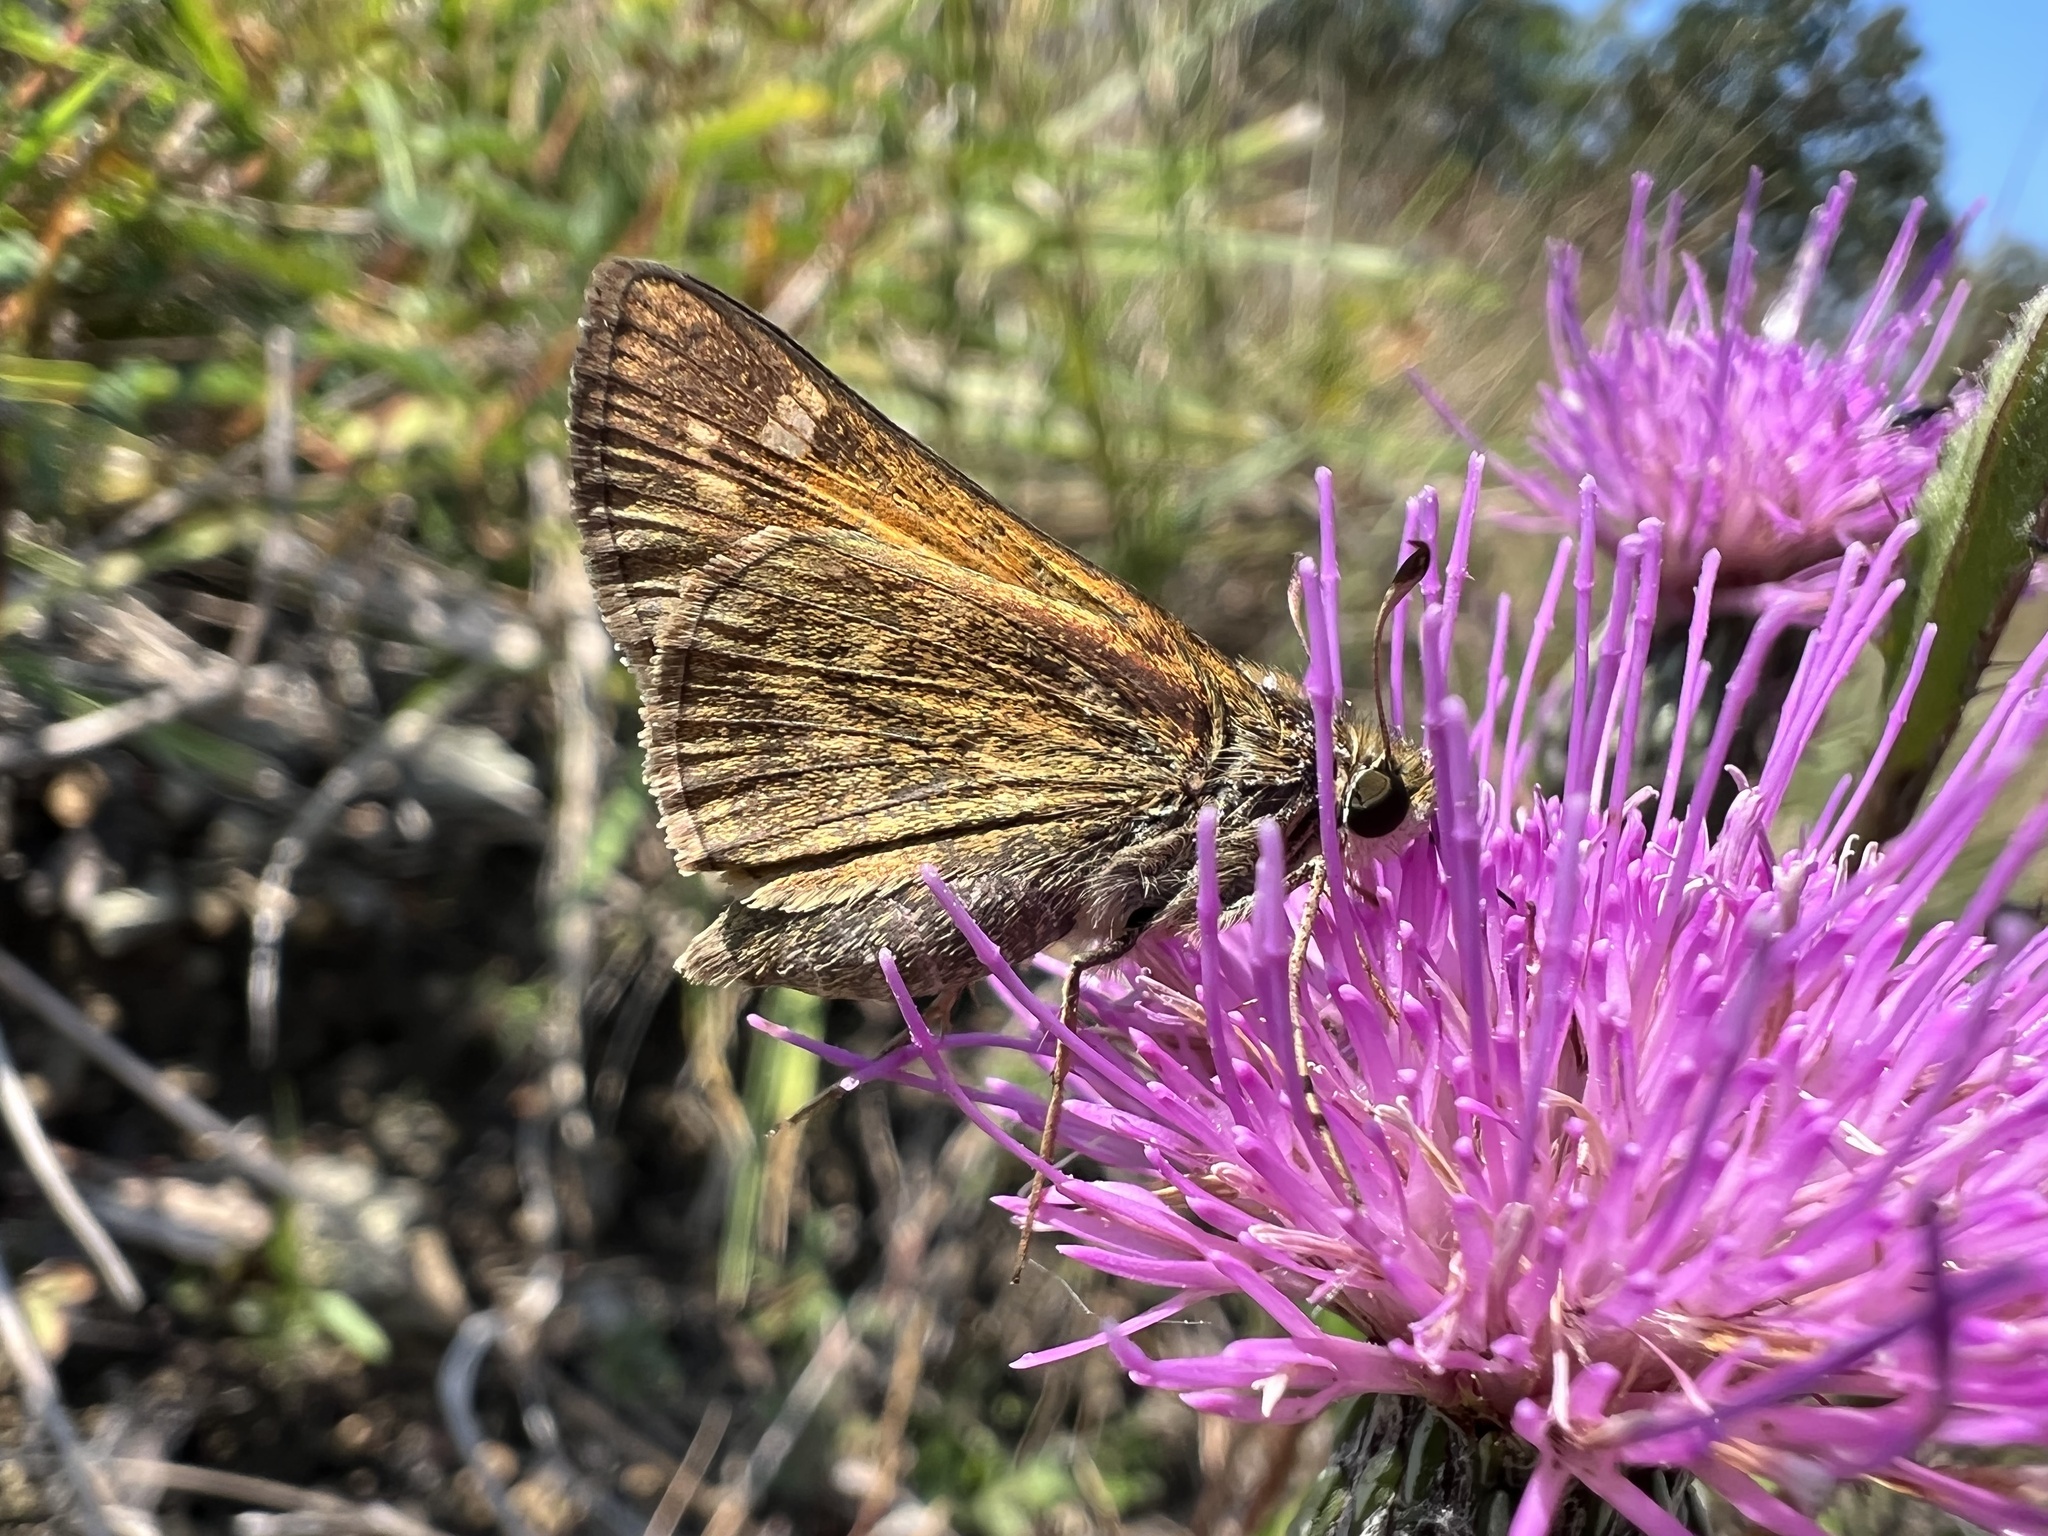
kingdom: Animalia
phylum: Arthropoda
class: Insecta
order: Lepidoptera
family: Hesperiidae
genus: Atalopedes
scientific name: Atalopedes
